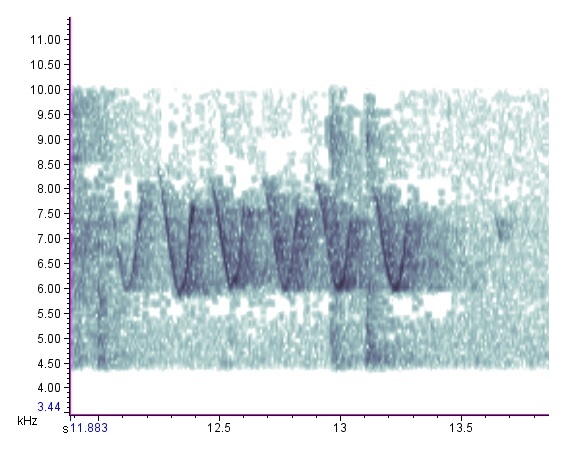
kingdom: Animalia
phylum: Chordata
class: Aves
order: Passeriformes
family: Parulidae
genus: Mniotilta
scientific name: Mniotilta varia
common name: Black-and-white warbler
